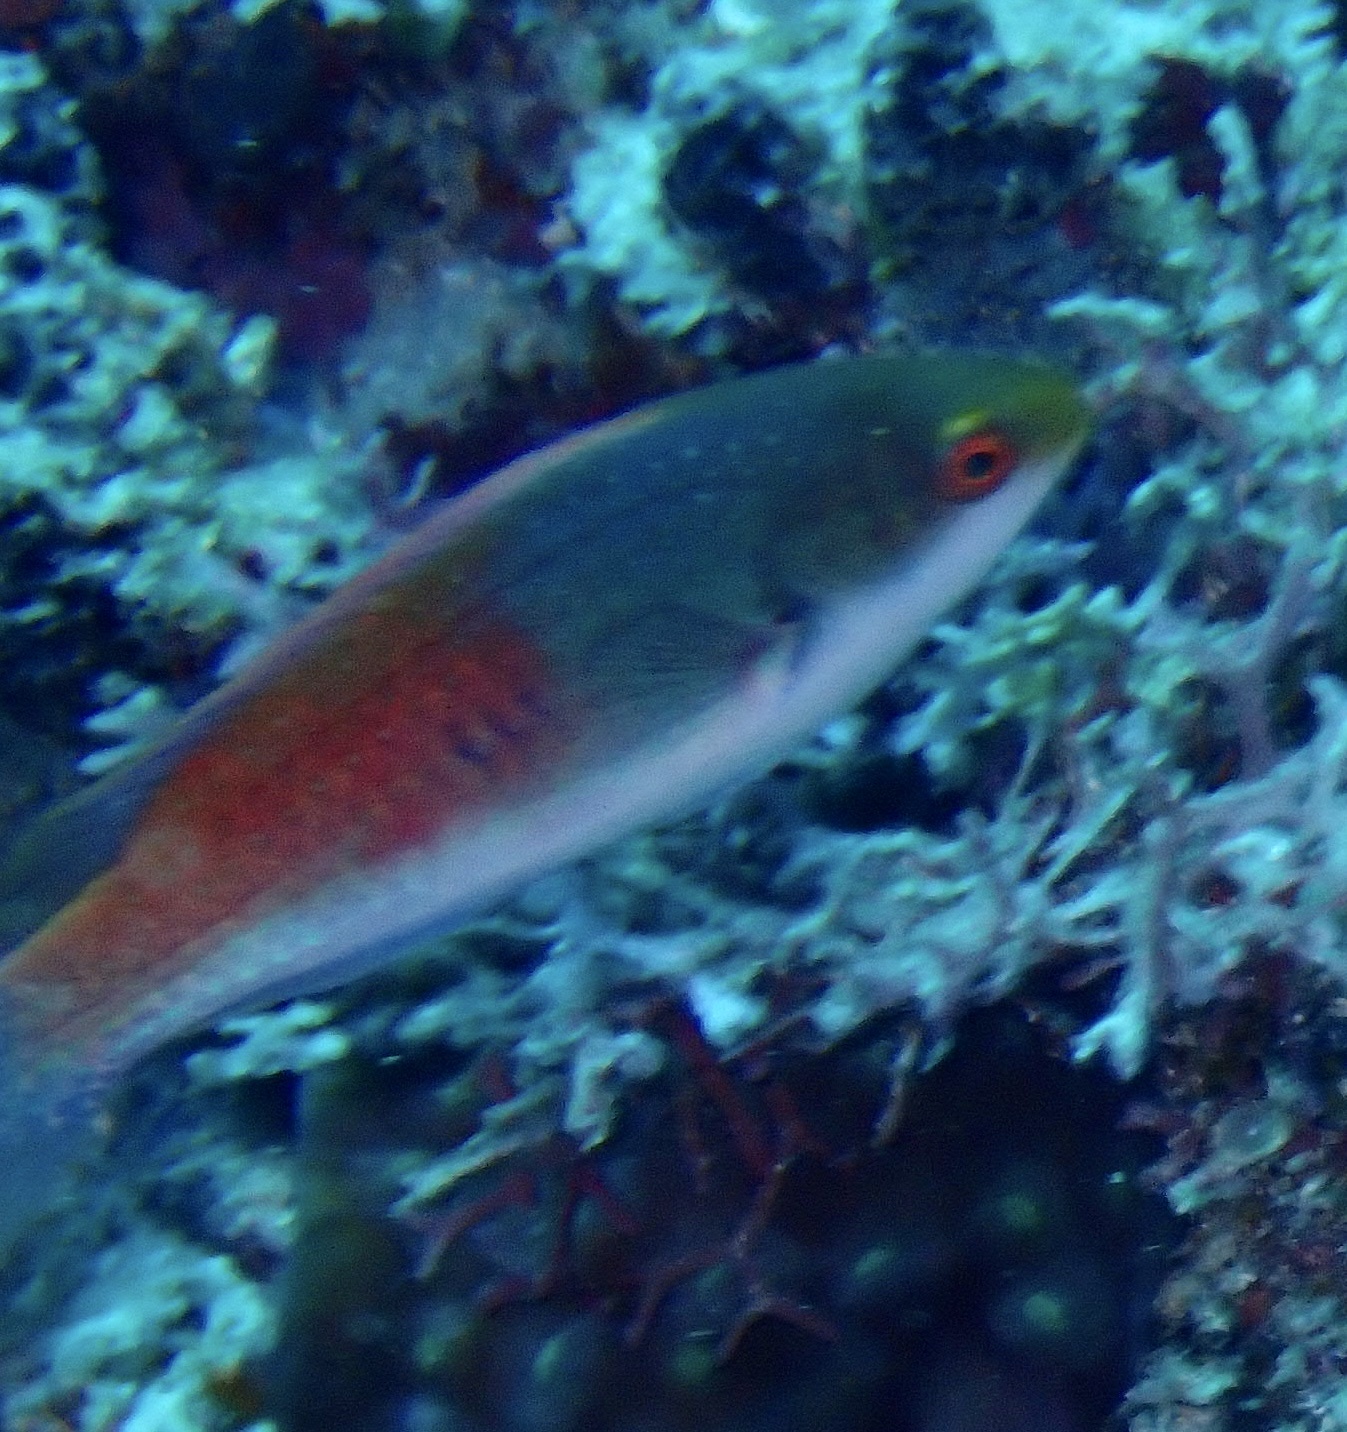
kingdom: Animalia
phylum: Chordata
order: Perciformes
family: Labridae
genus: Cirrhilabrus
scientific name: Cirrhilabrus cyanopleura
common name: Coralline wrasse
